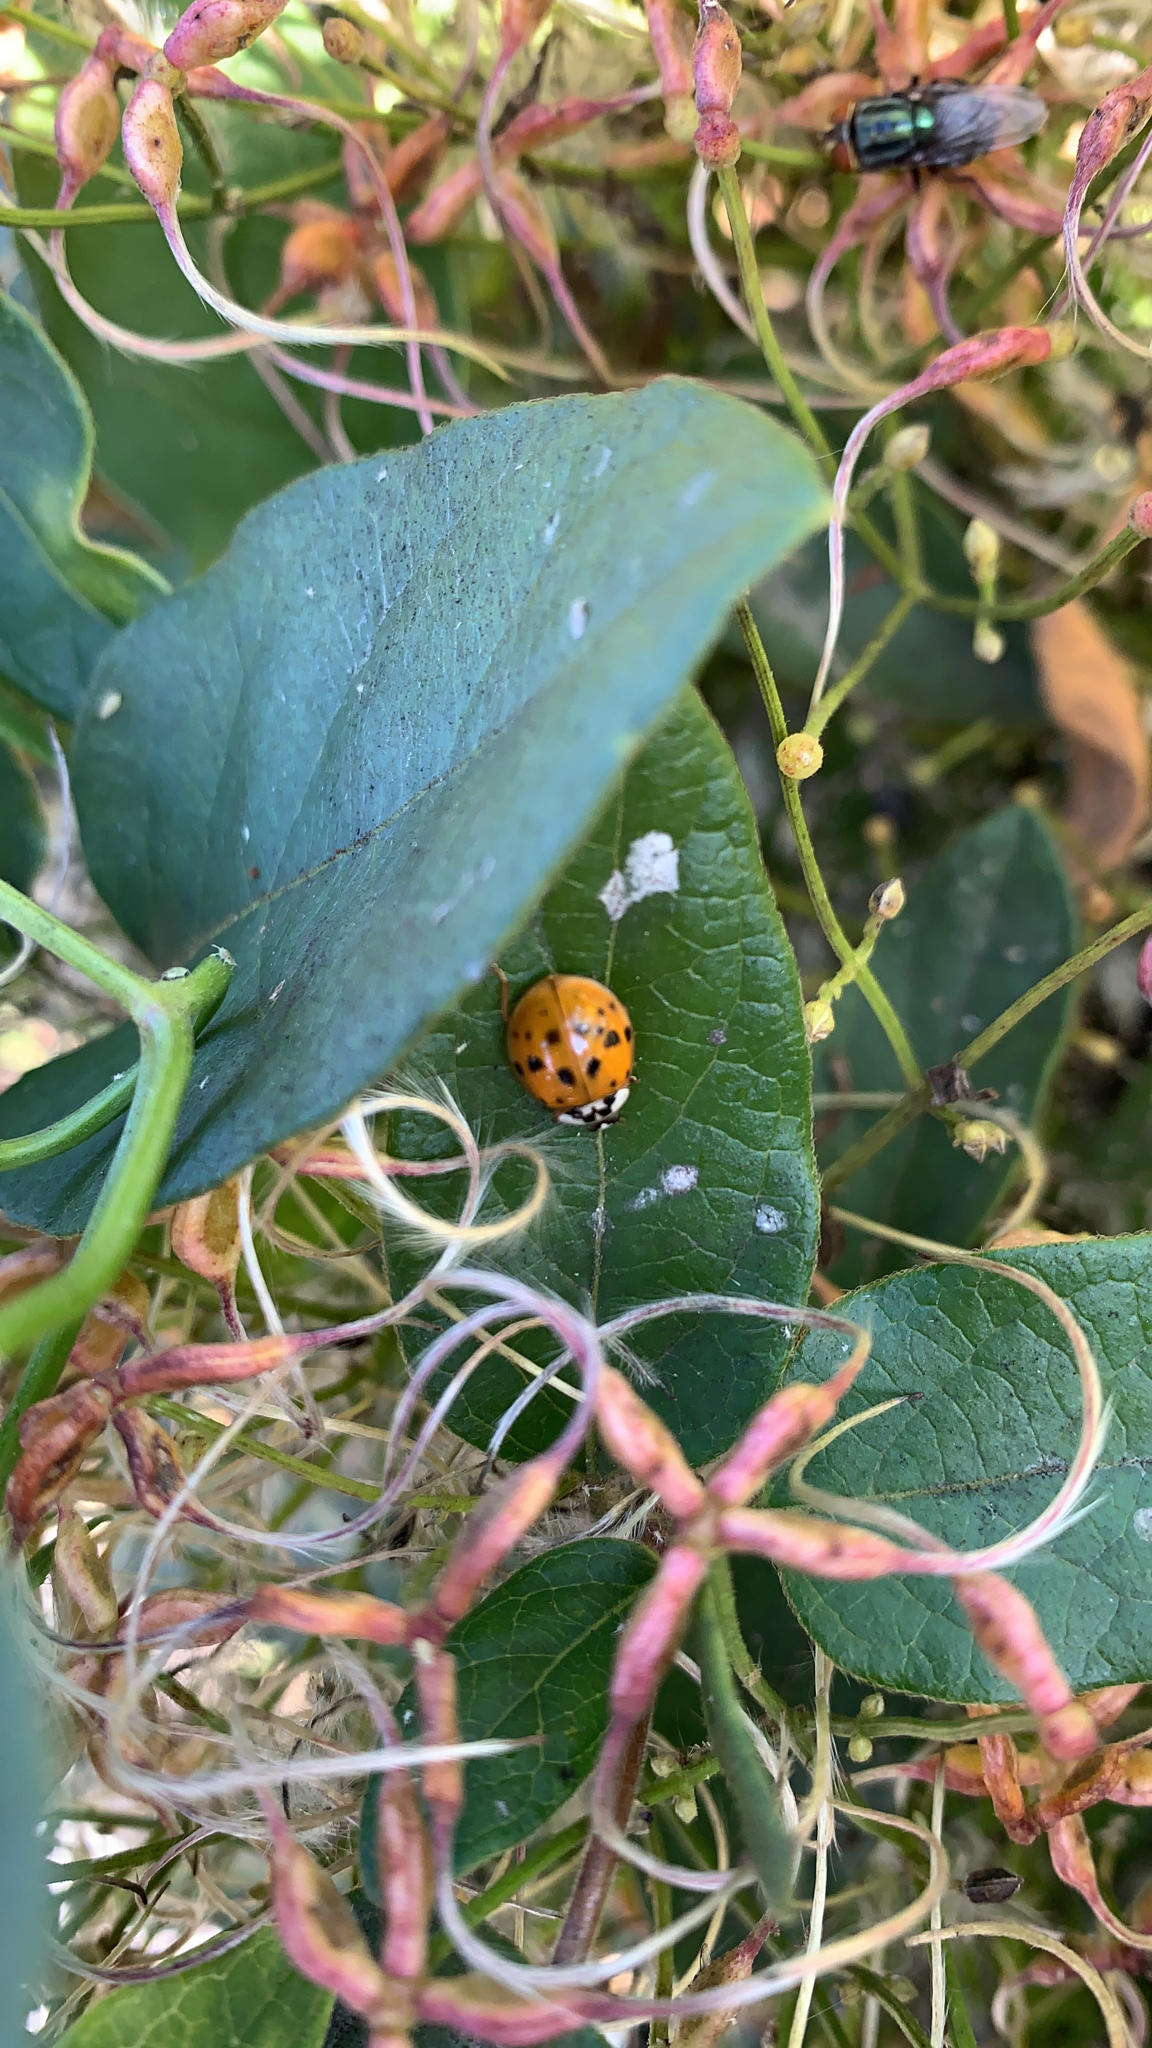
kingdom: Animalia
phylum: Arthropoda
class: Insecta
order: Coleoptera
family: Coccinellidae
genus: Harmonia
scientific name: Harmonia axyridis
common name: Harlequin ladybird
